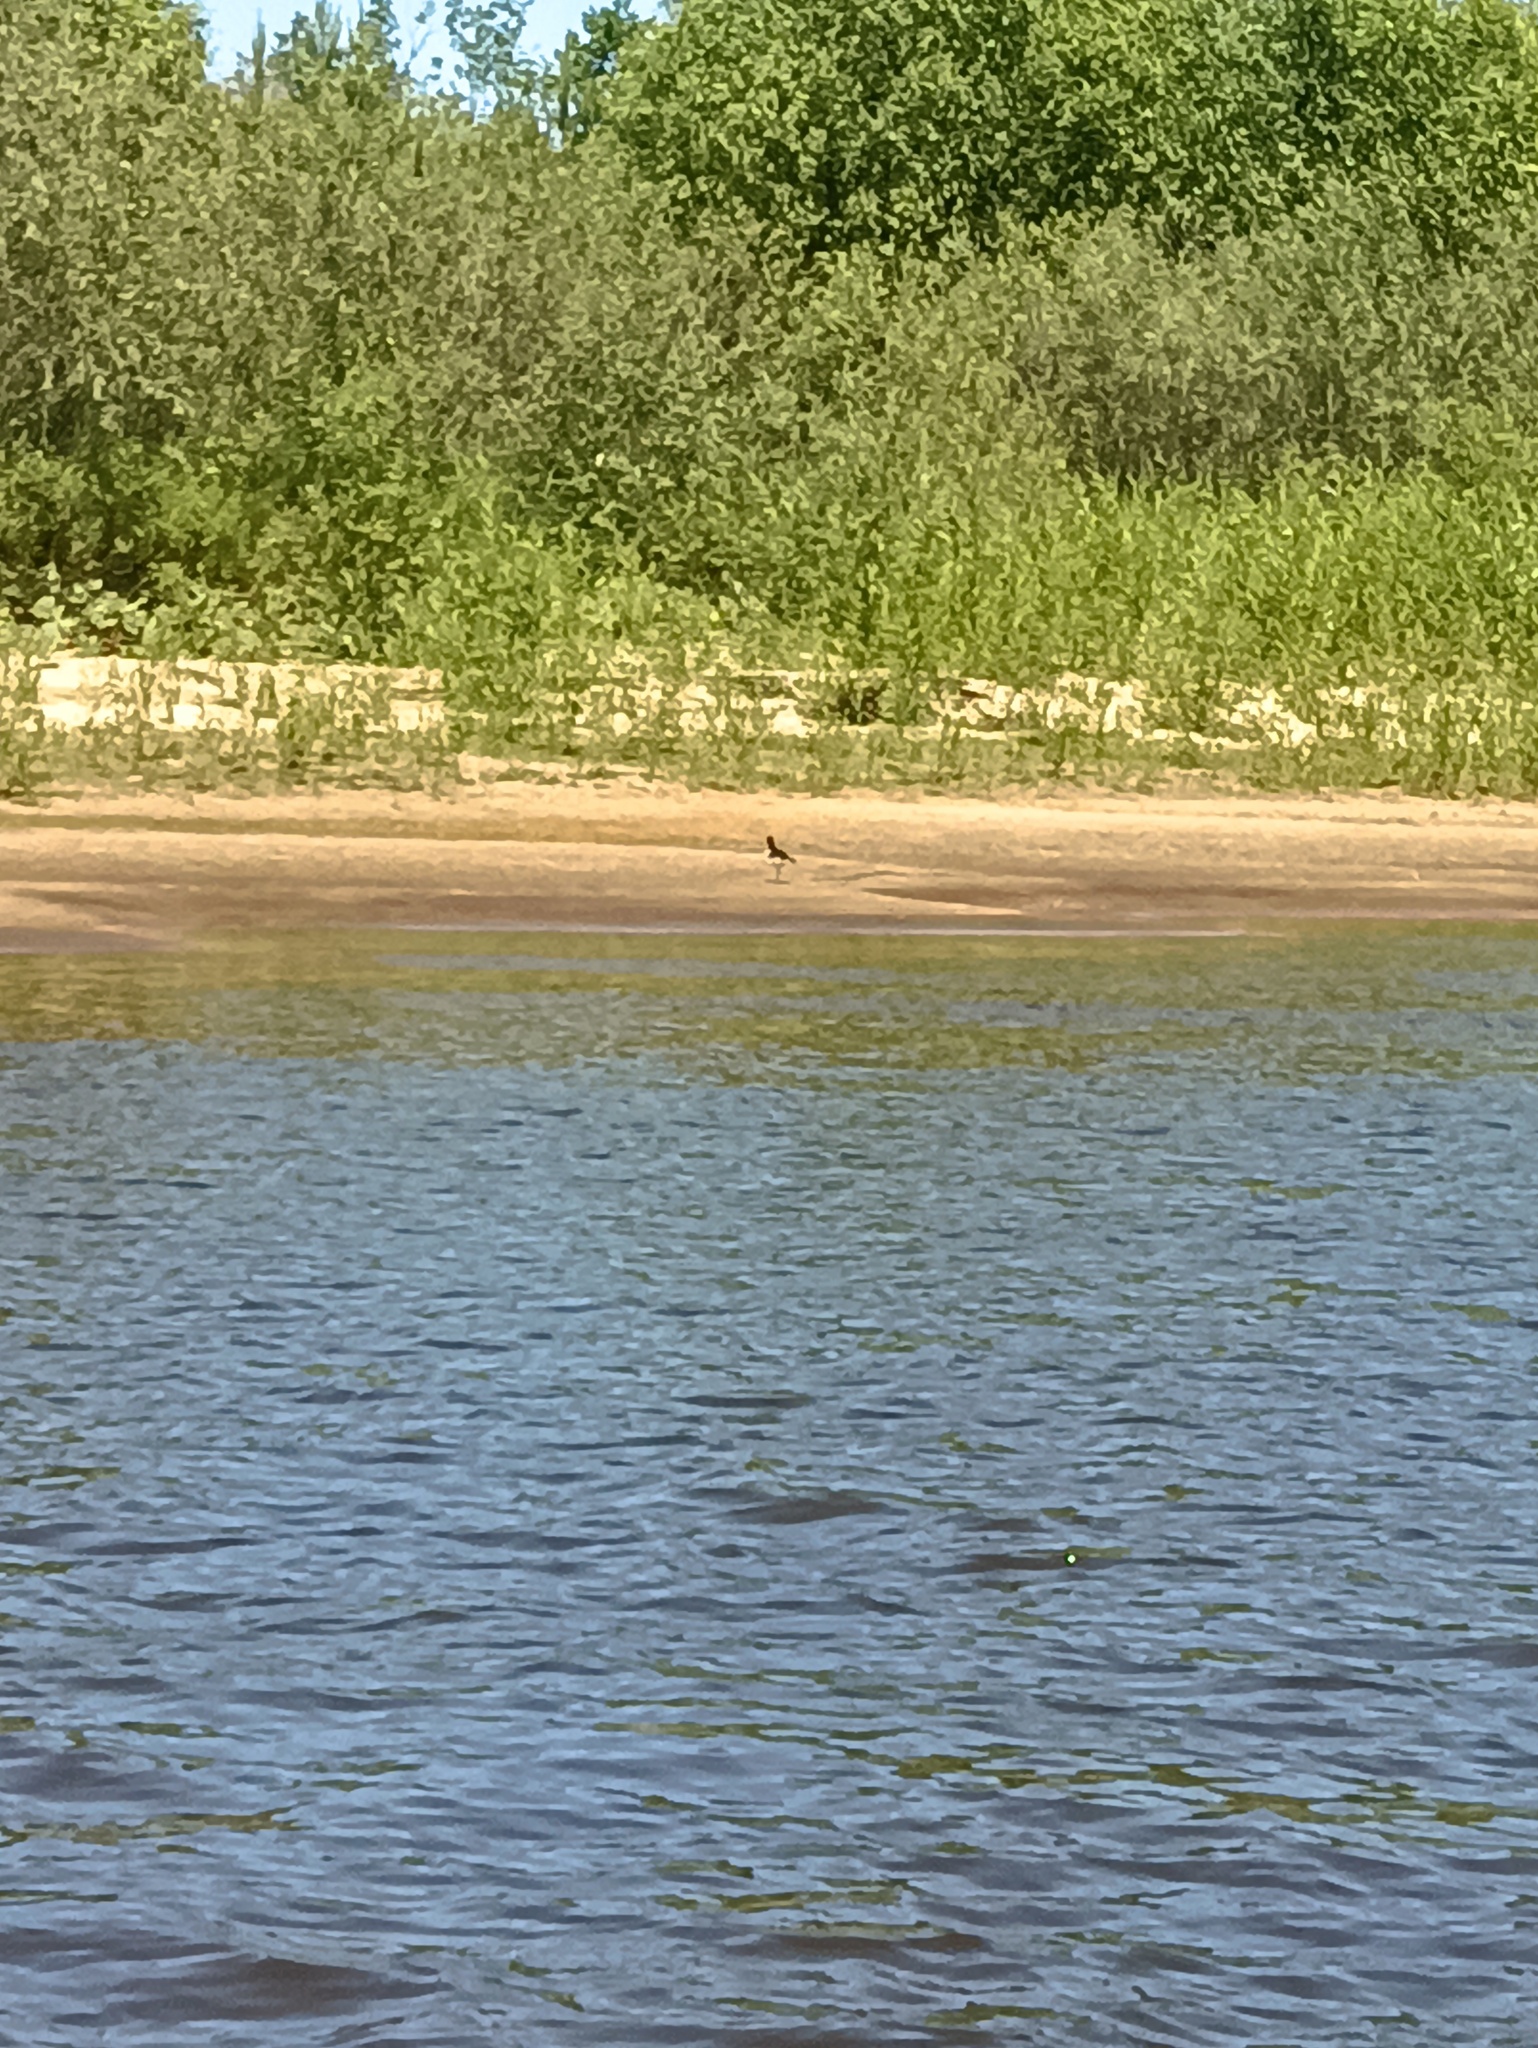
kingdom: Animalia
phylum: Chordata
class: Aves
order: Charadriiformes
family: Haematopodidae
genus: Haematopus
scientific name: Haematopus ostralegus
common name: Eurasian oystercatcher
